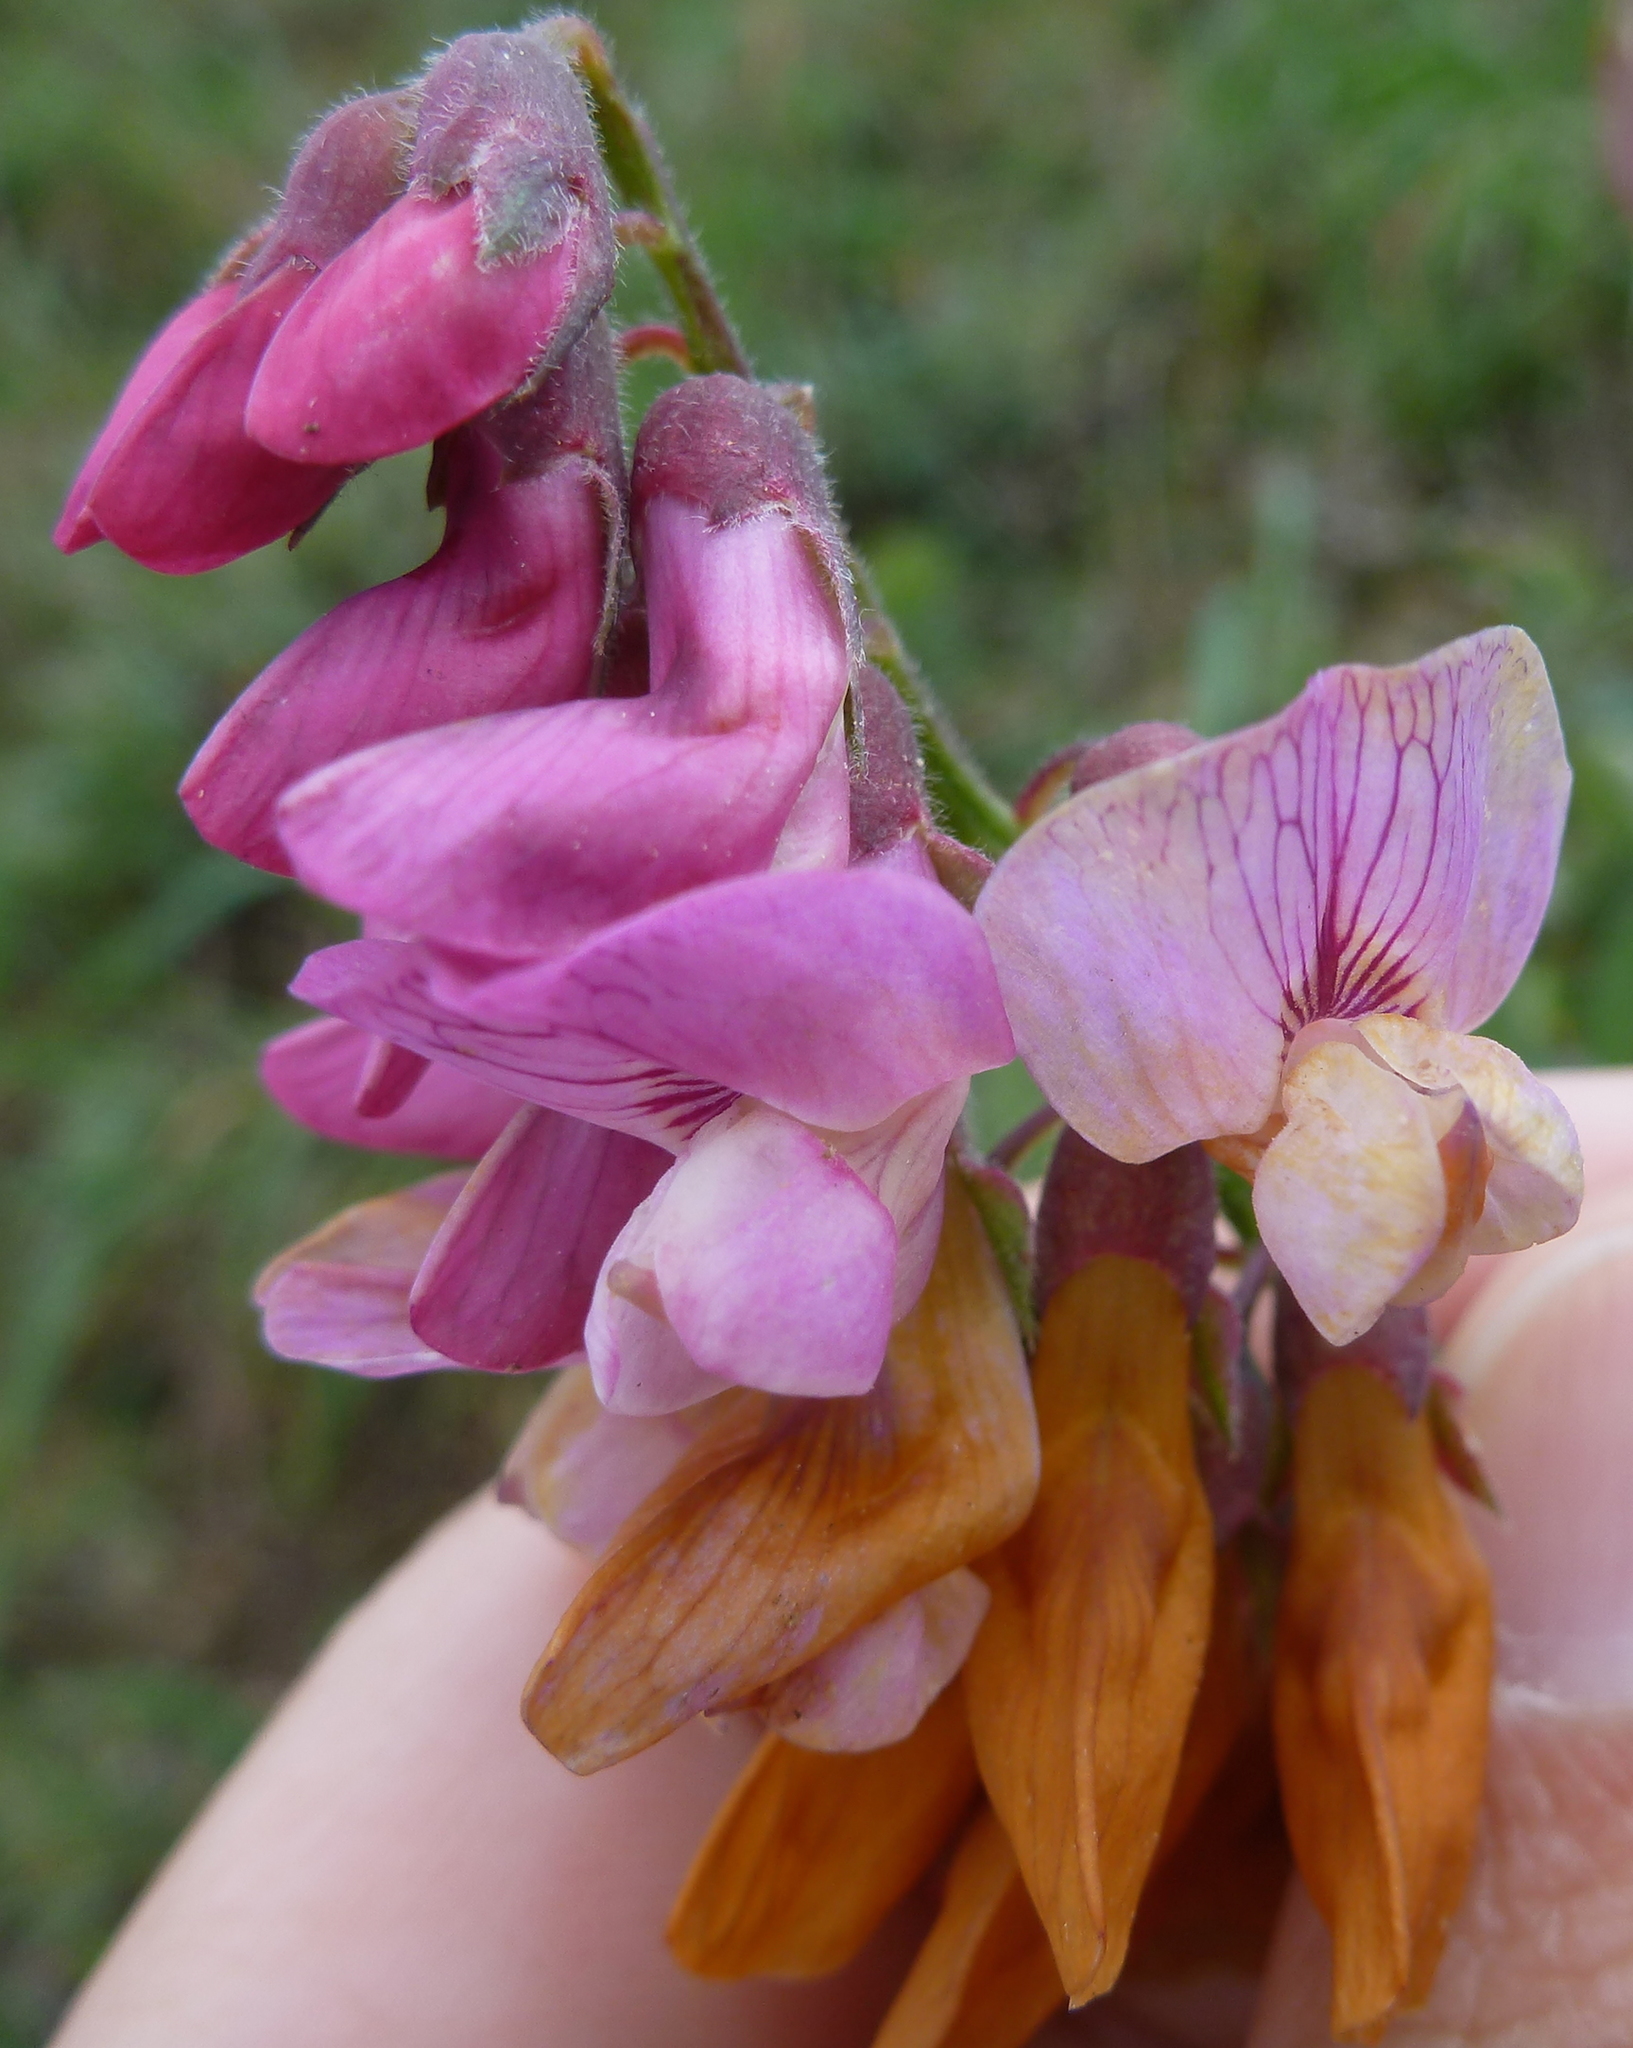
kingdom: Plantae
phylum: Tracheophyta
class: Magnoliopsida
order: Fabales
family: Fabaceae
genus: Lathyrus
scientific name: Lathyrus vestitus
